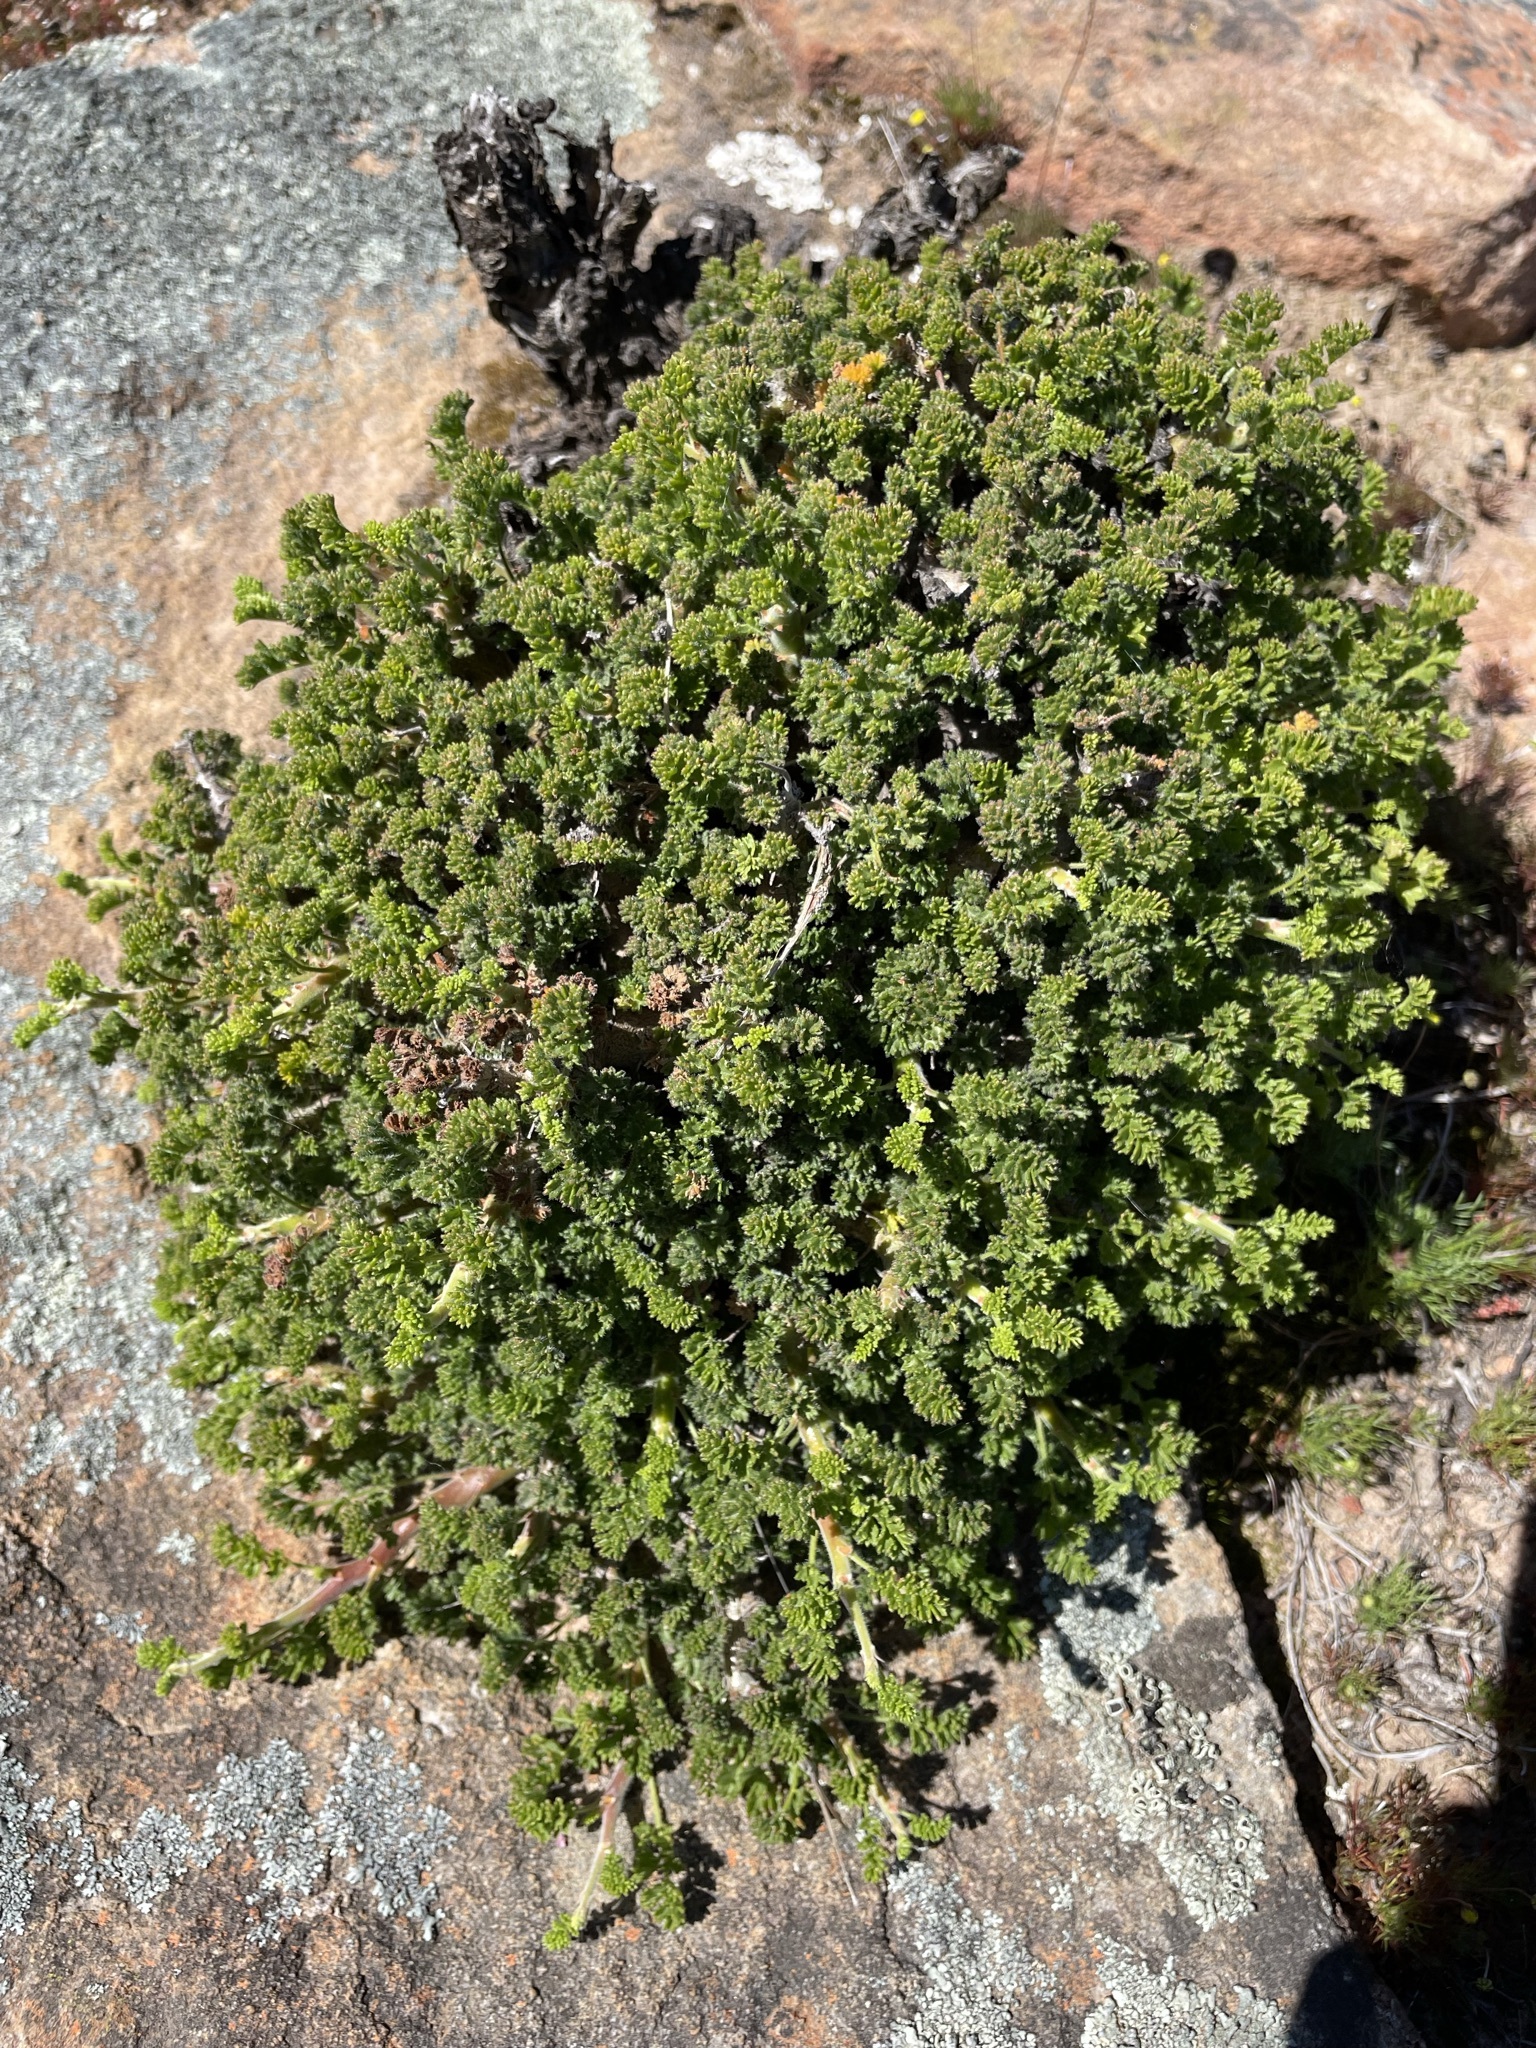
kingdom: Plantae
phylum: Tracheophyta
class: Magnoliopsida
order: Geraniales
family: Geraniaceae
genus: Pelargonium
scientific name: Pelargonium alternans
